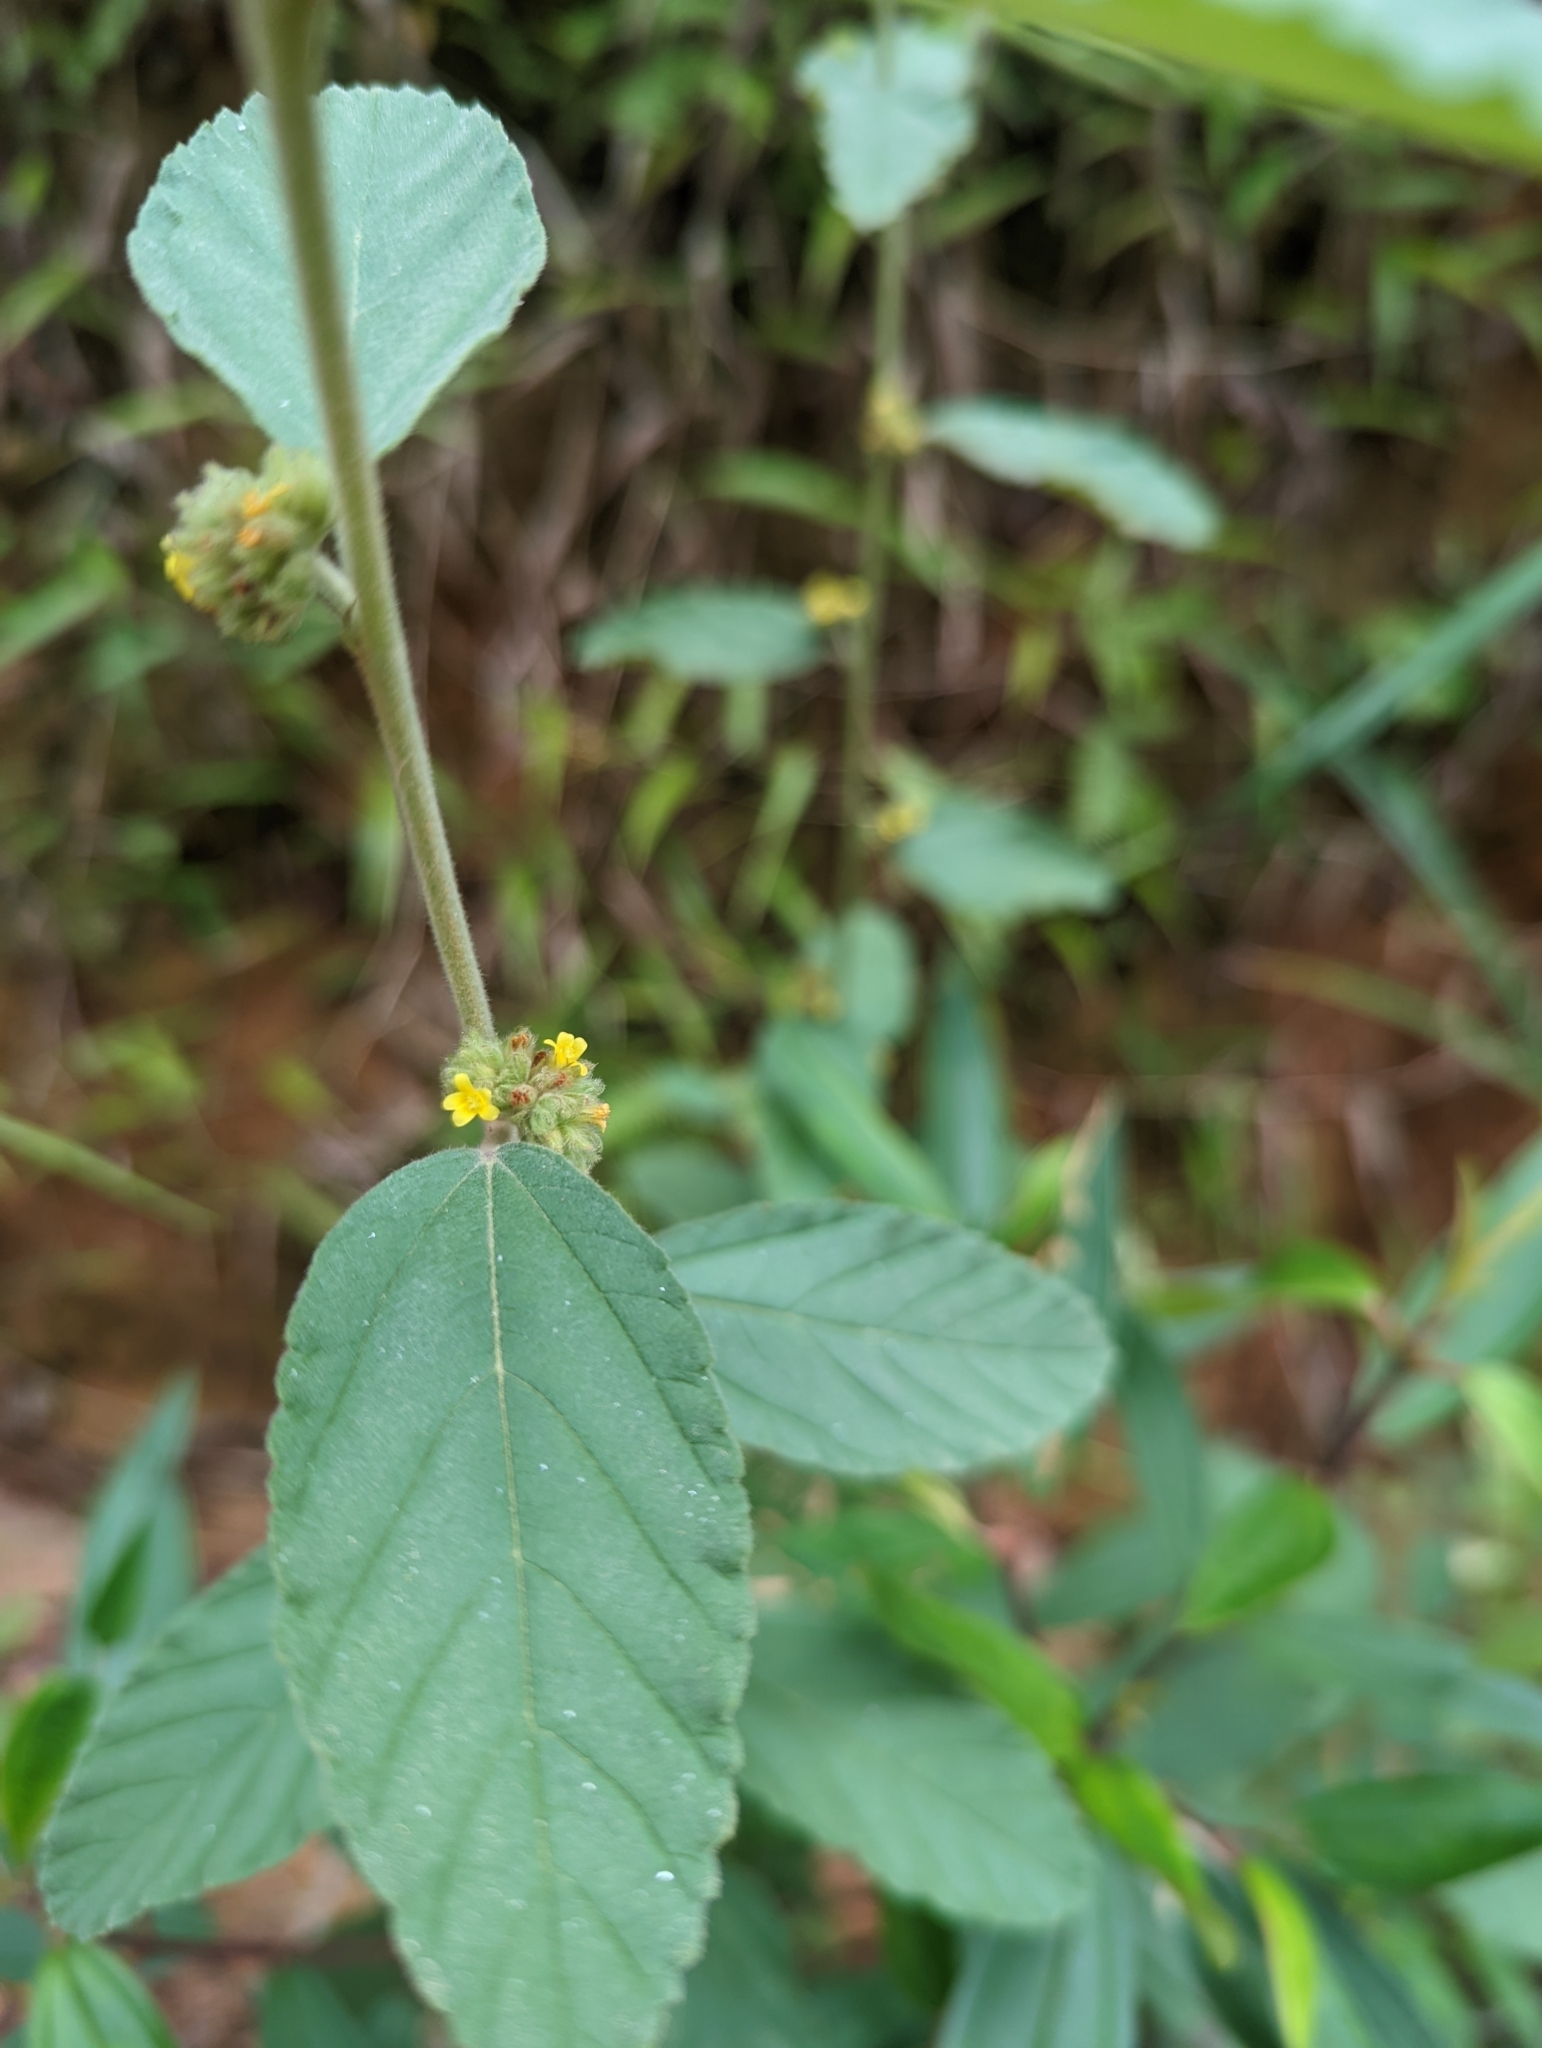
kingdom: Plantae
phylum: Tracheophyta
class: Magnoliopsida
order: Malvales
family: Malvaceae
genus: Waltheria
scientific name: Waltheria indica
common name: Leather-coat
